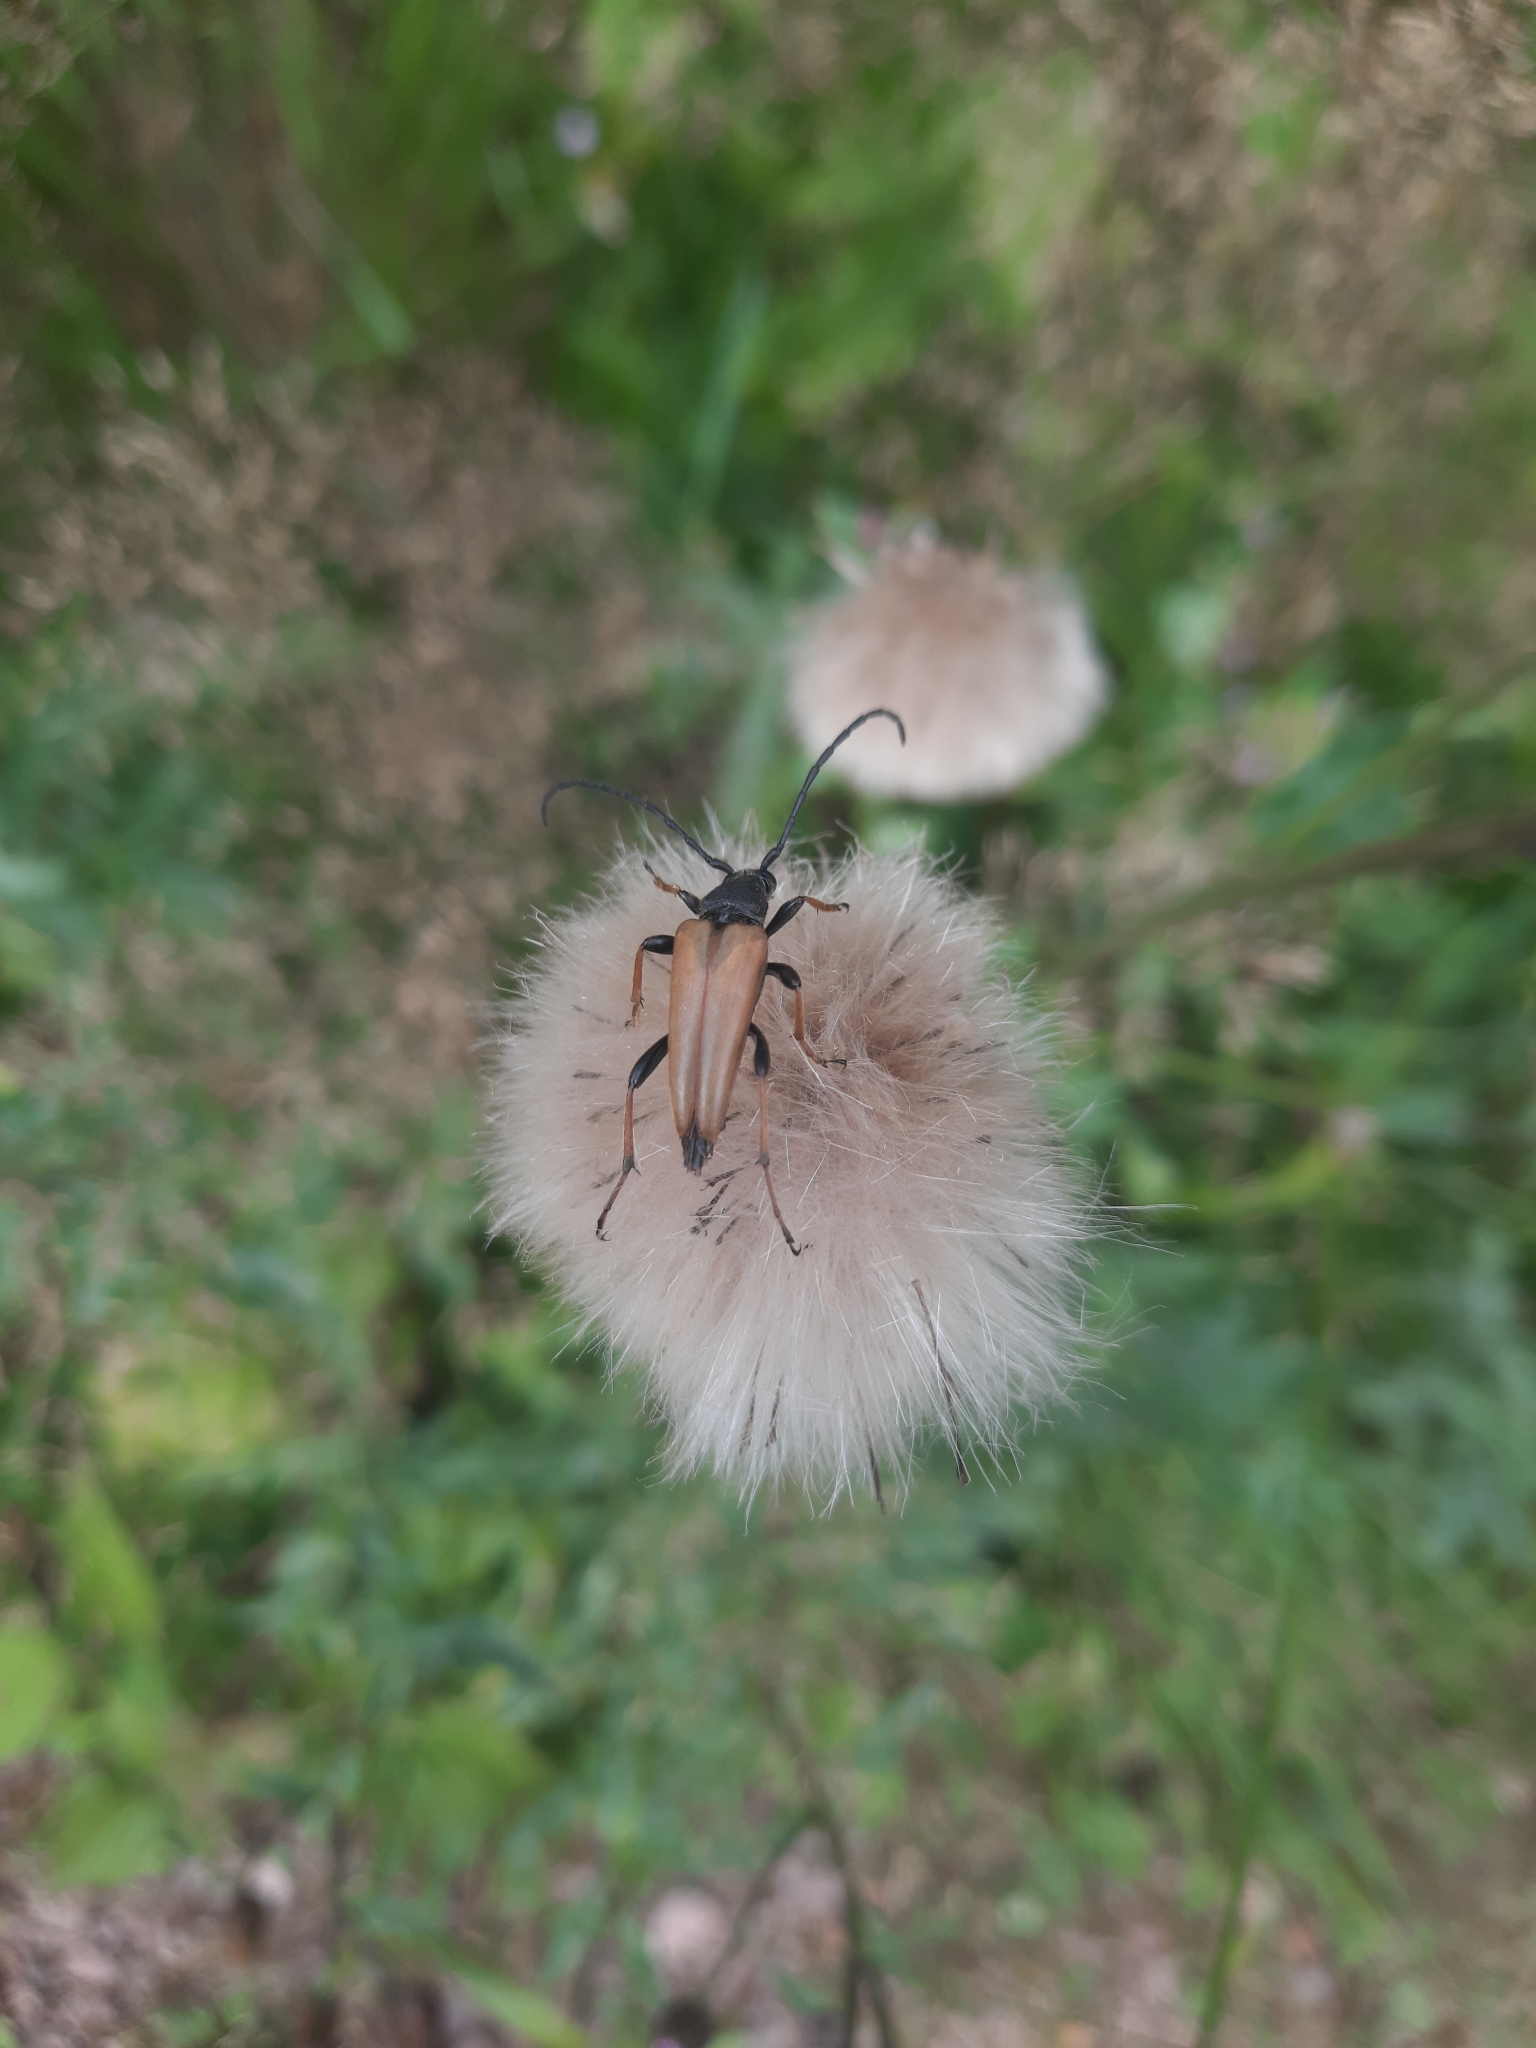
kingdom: Animalia
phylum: Arthropoda
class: Insecta
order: Coleoptera
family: Cerambycidae
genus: Stictoleptura
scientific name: Stictoleptura rubra
